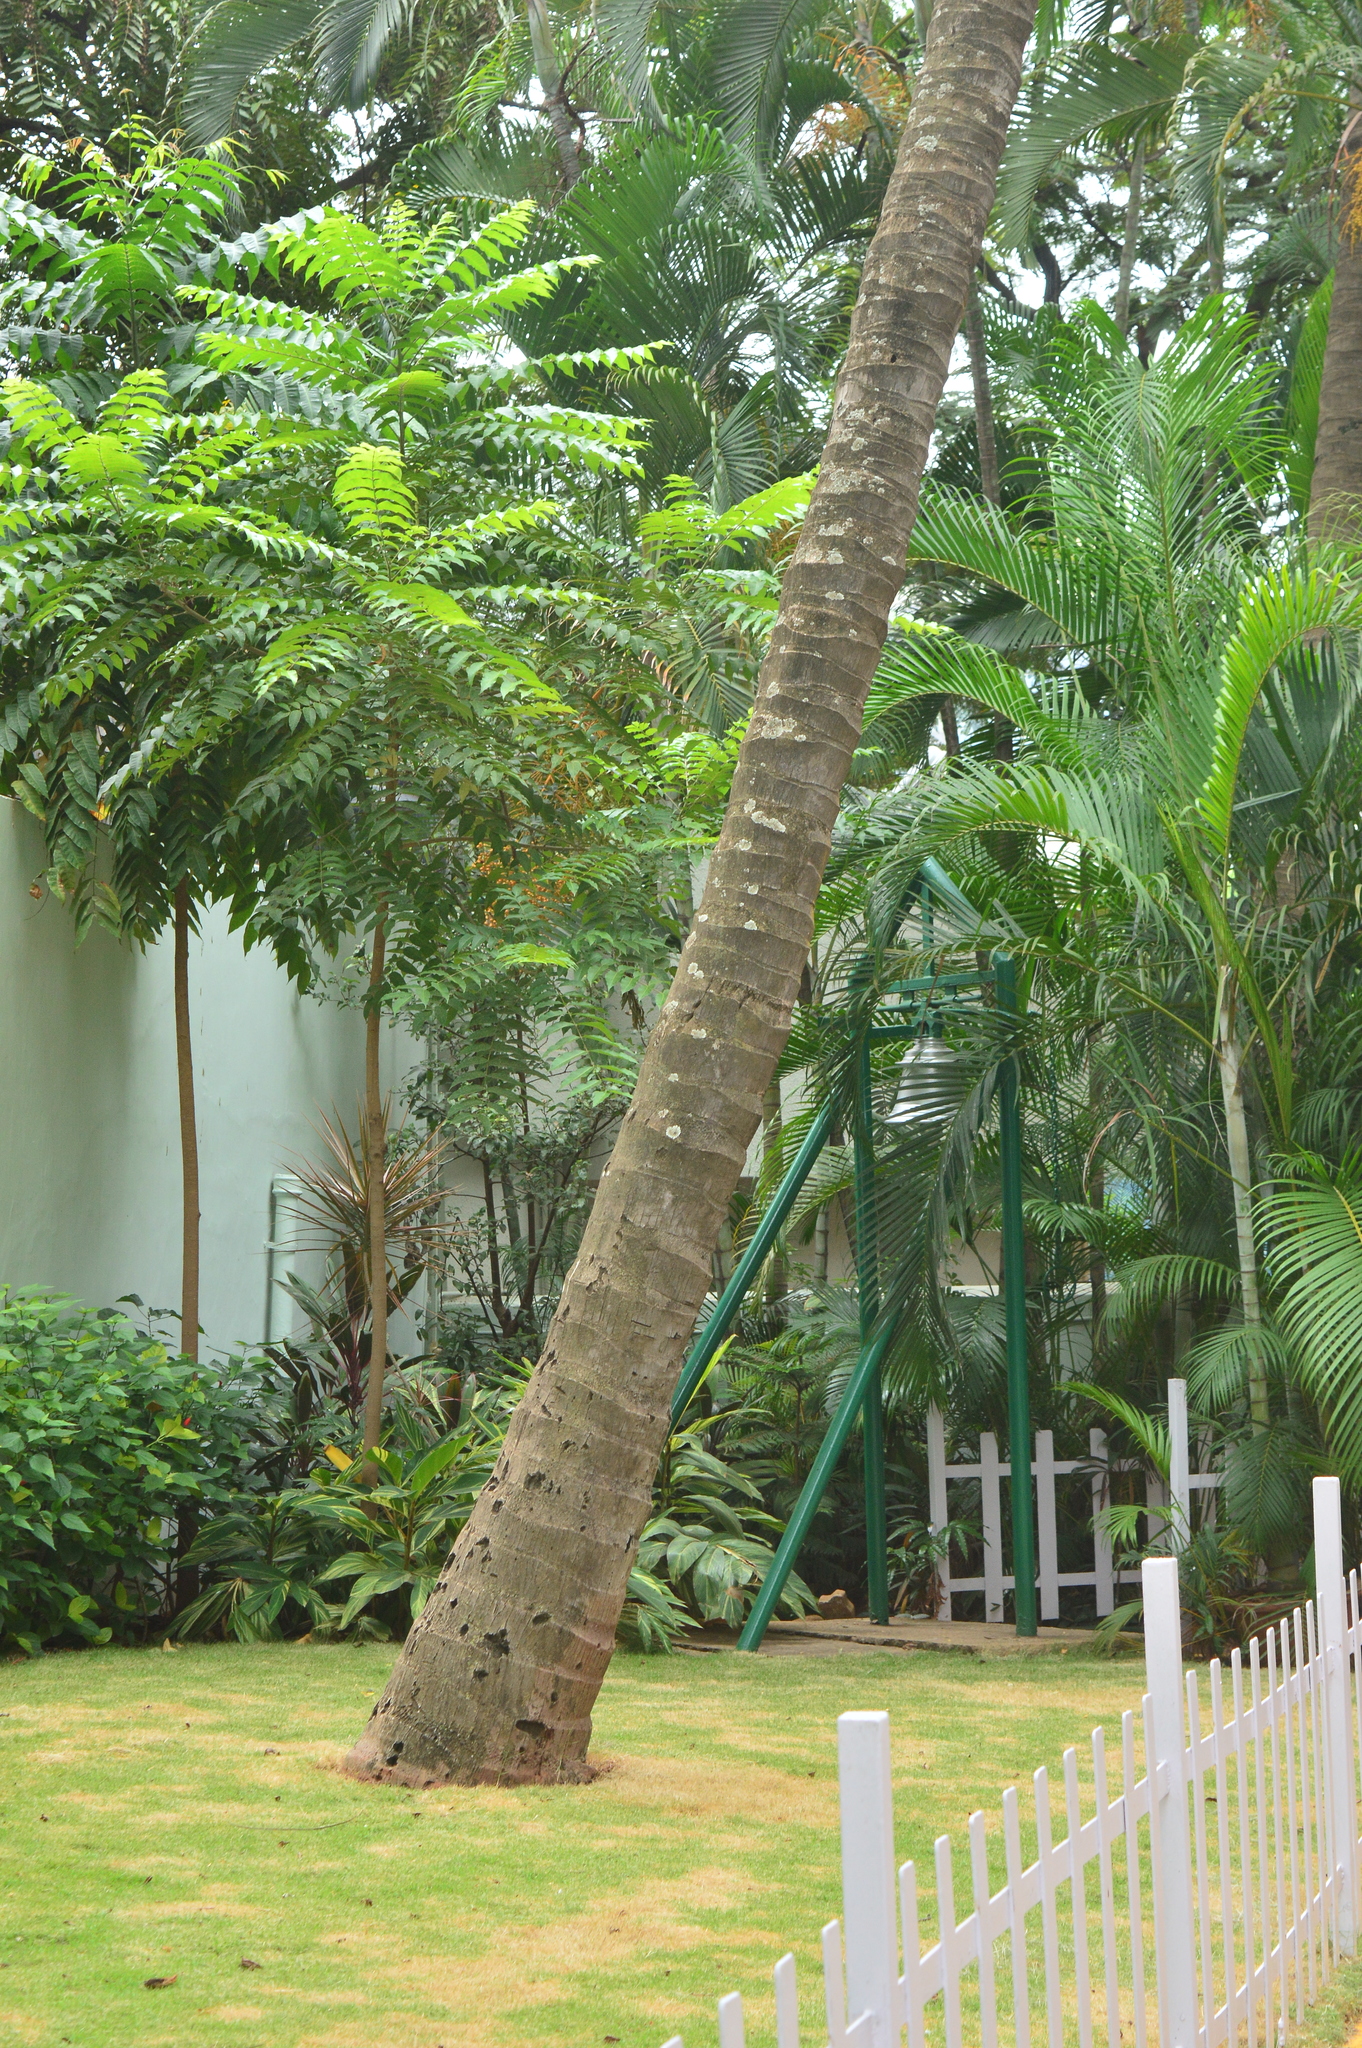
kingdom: Plantae
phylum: Tracheophyta
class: Liliopsida
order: Arecales
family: Arecaceae
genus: Cocos
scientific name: Cocos nucifera
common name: Coconut palm
